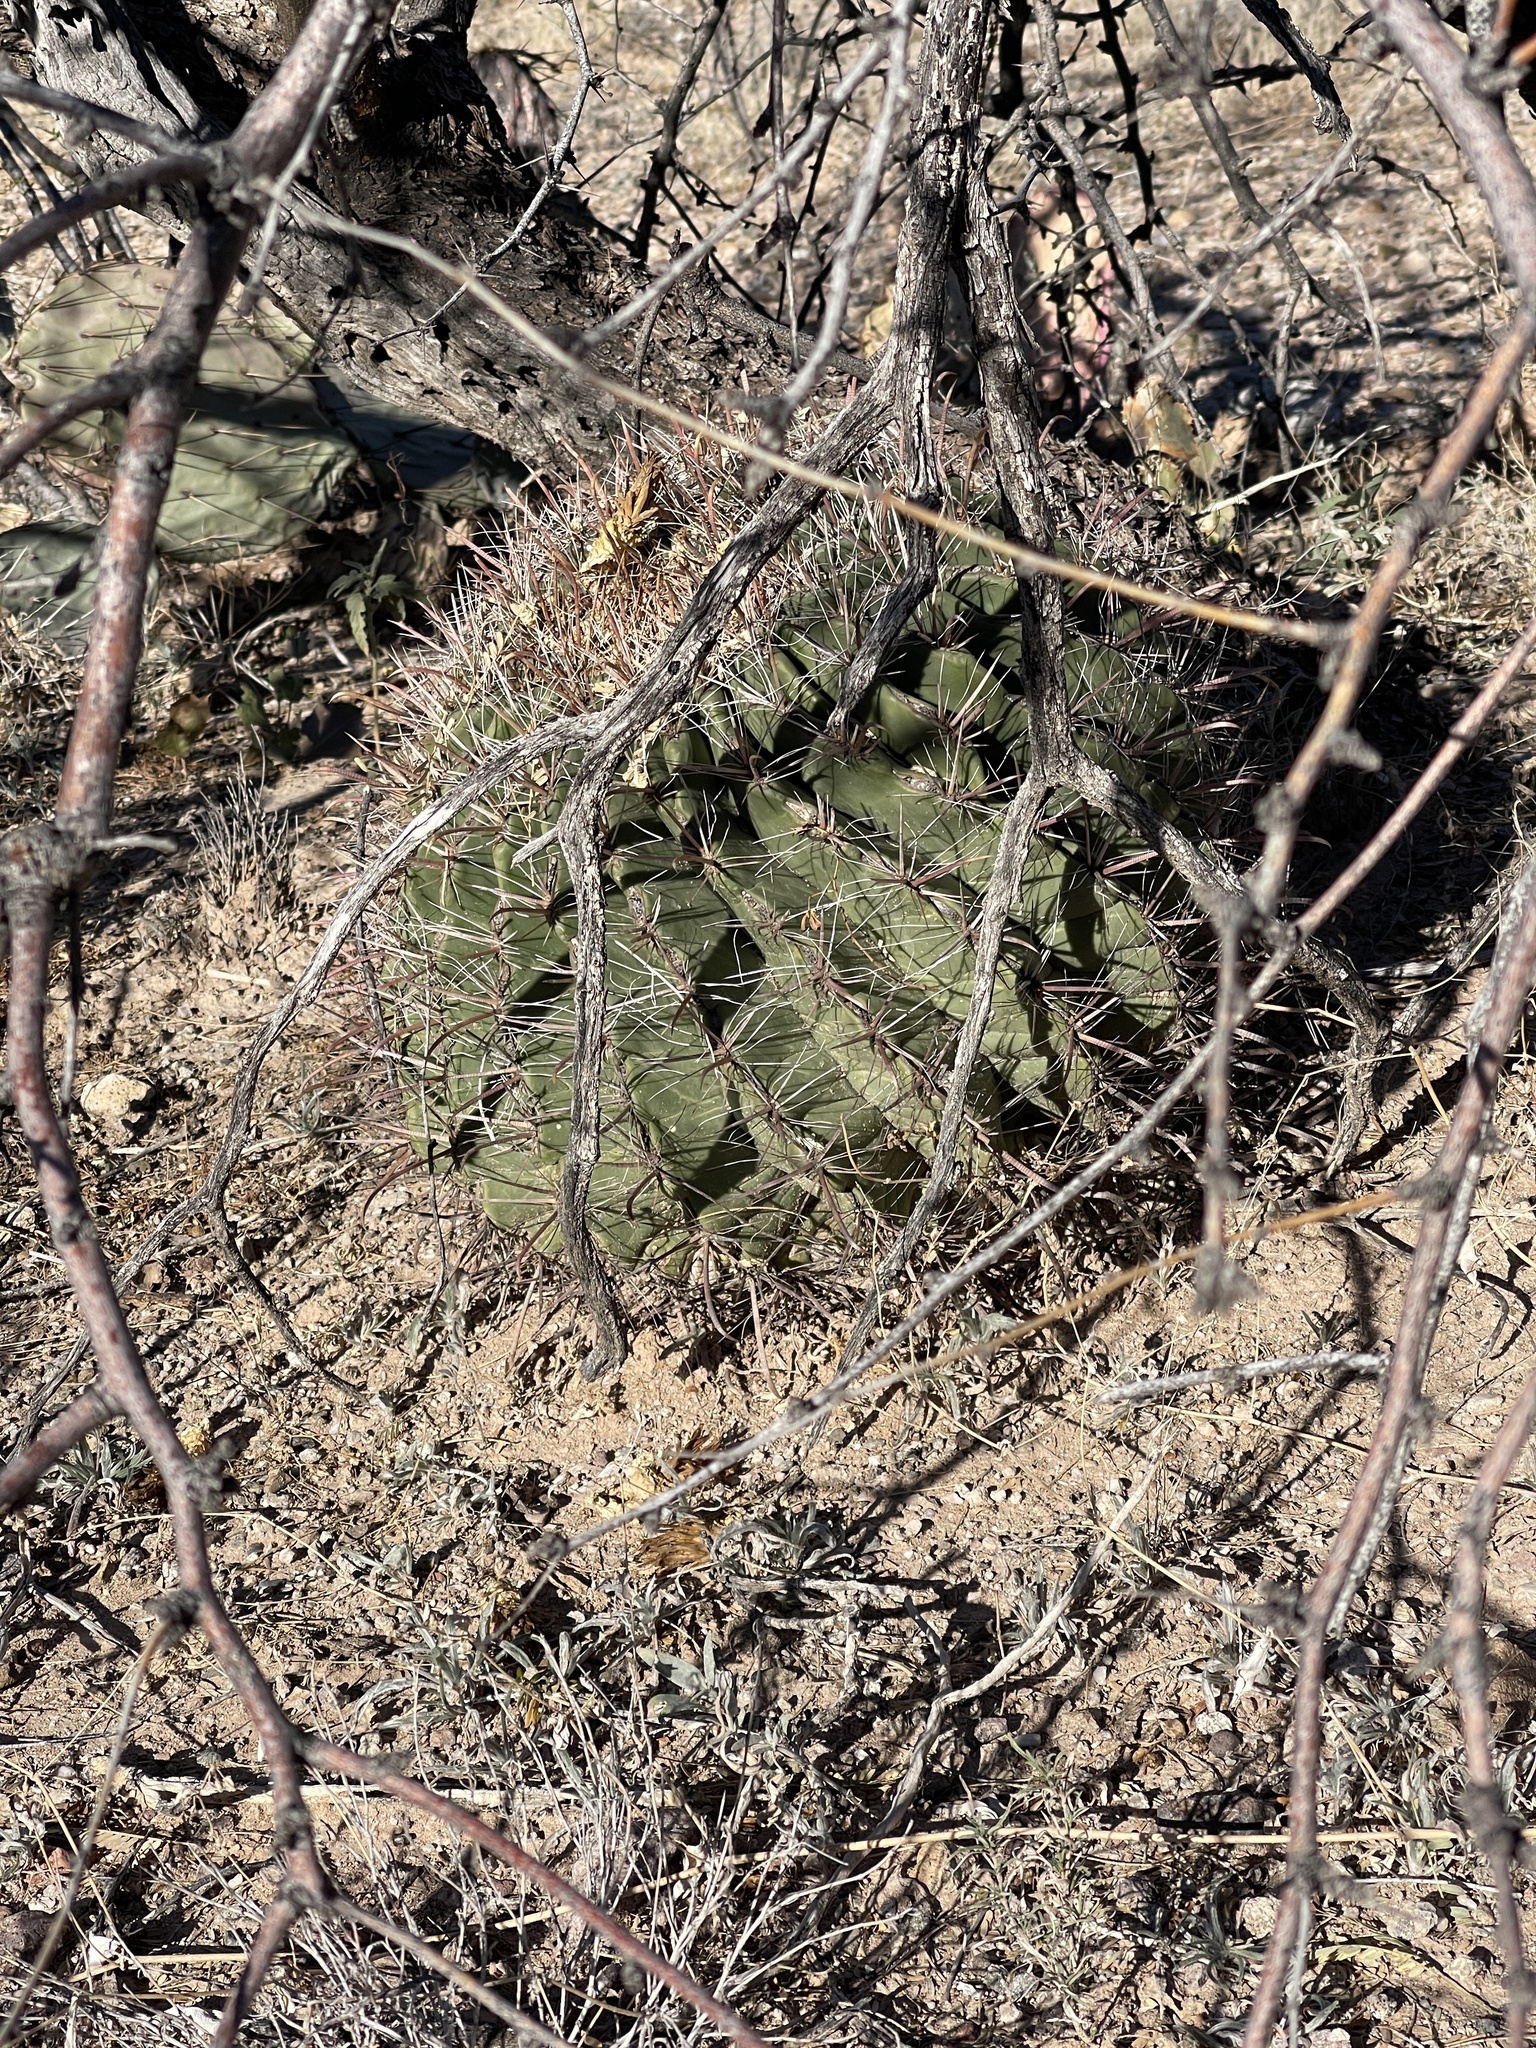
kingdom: Plantae
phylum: Tracheophyta
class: Magnoliopsida
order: Caryophyllales
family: Cactaceae
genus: Ferocactus
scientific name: Ferocactus wislizeni
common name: Candy barrel cactus
